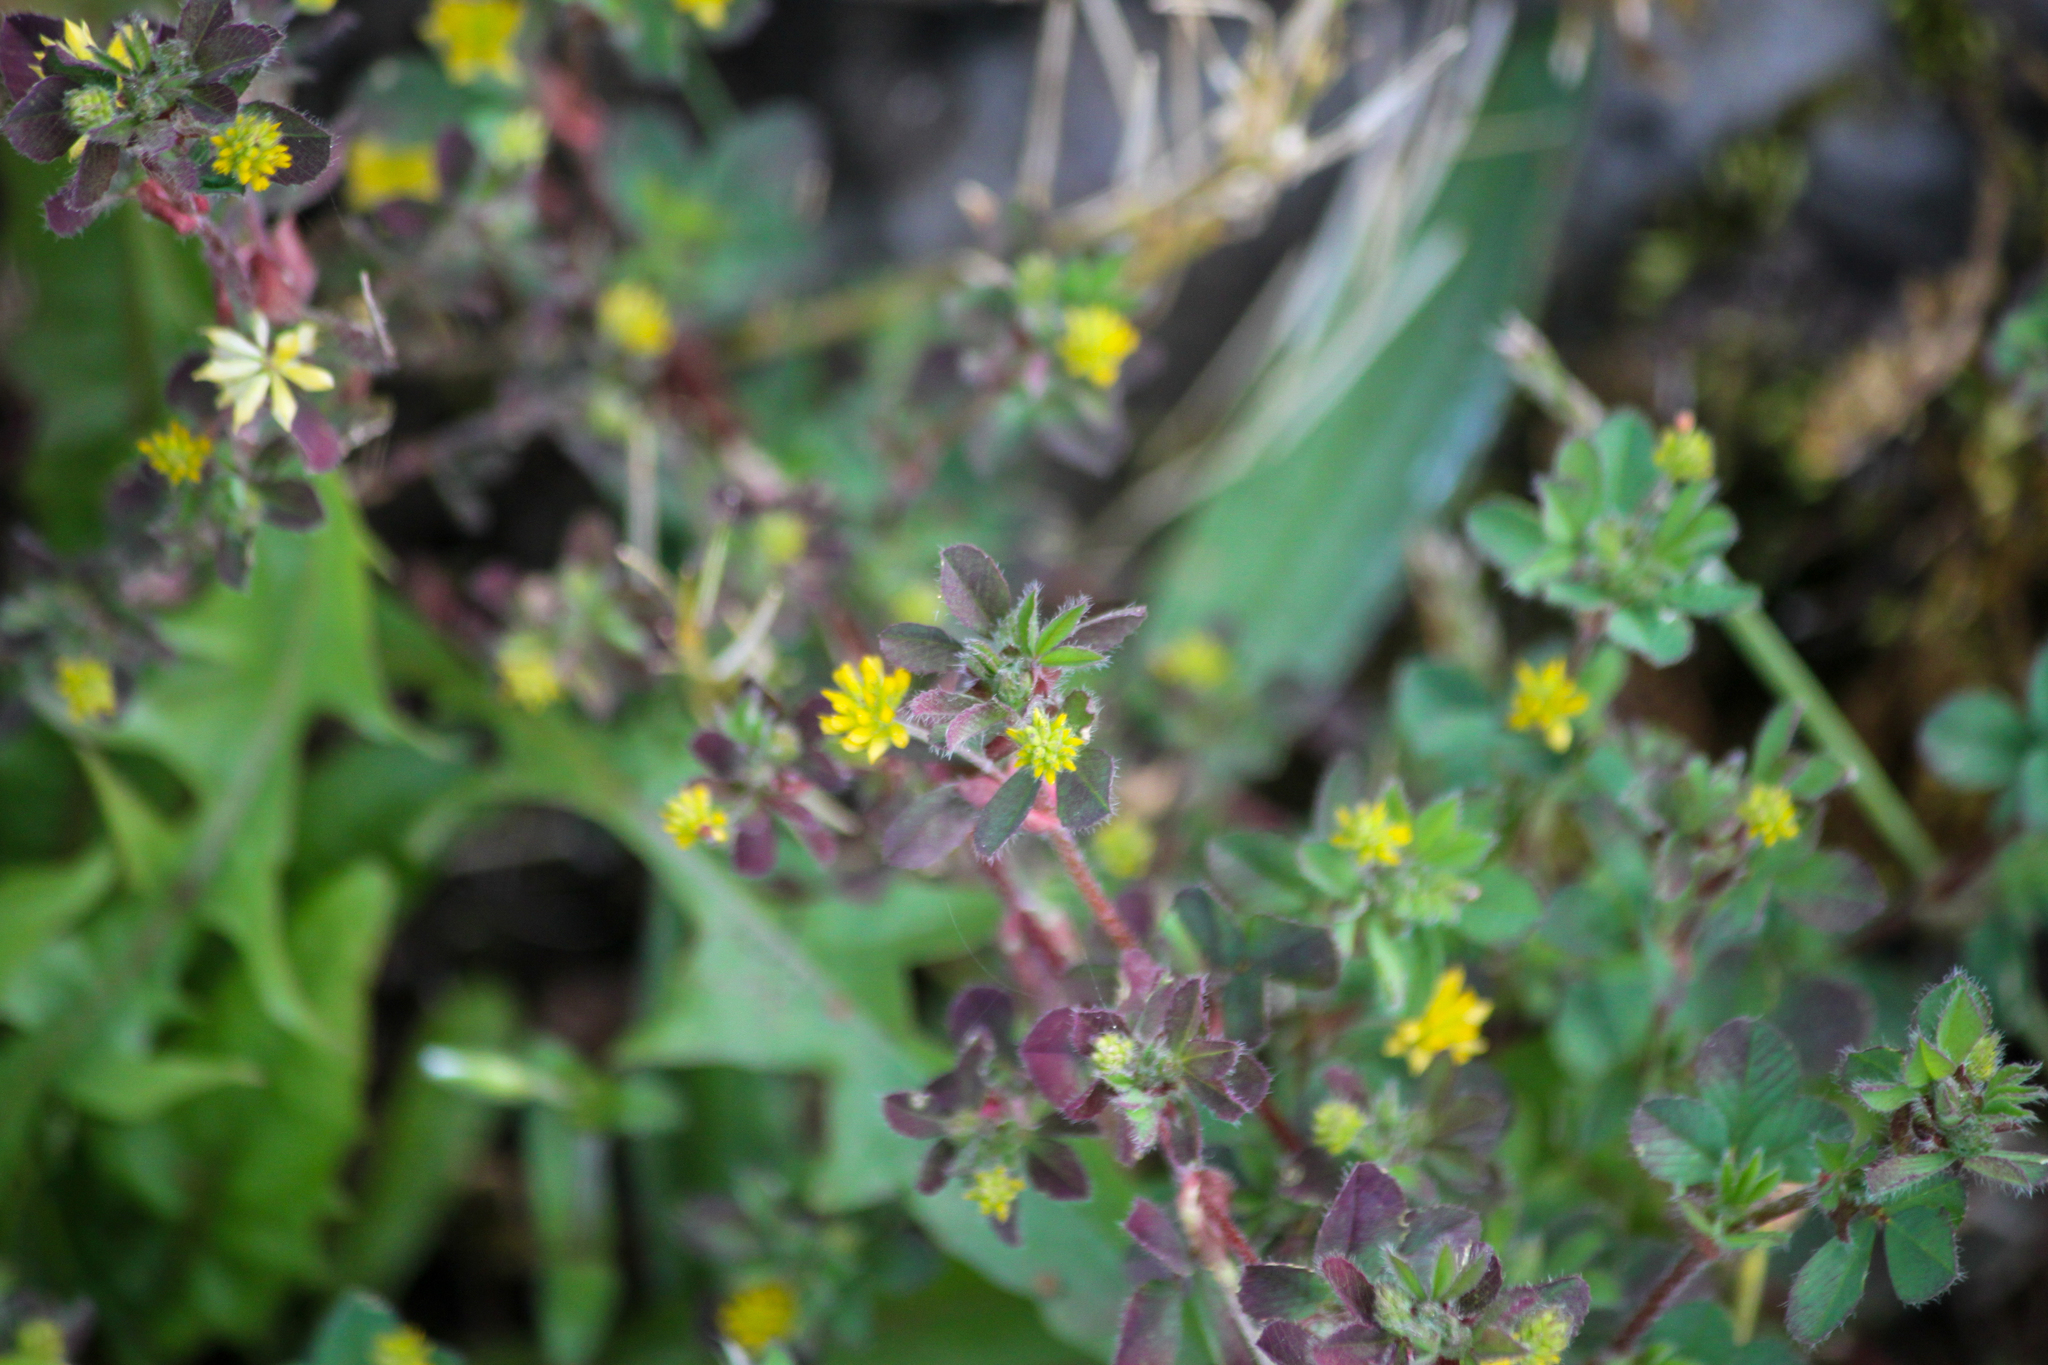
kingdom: Plantae
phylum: Tracheophyta
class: Magnoliopsida
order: Fabales
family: Fabaceae
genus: Trifolium
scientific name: Trifolium dubium
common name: Suckling clover
